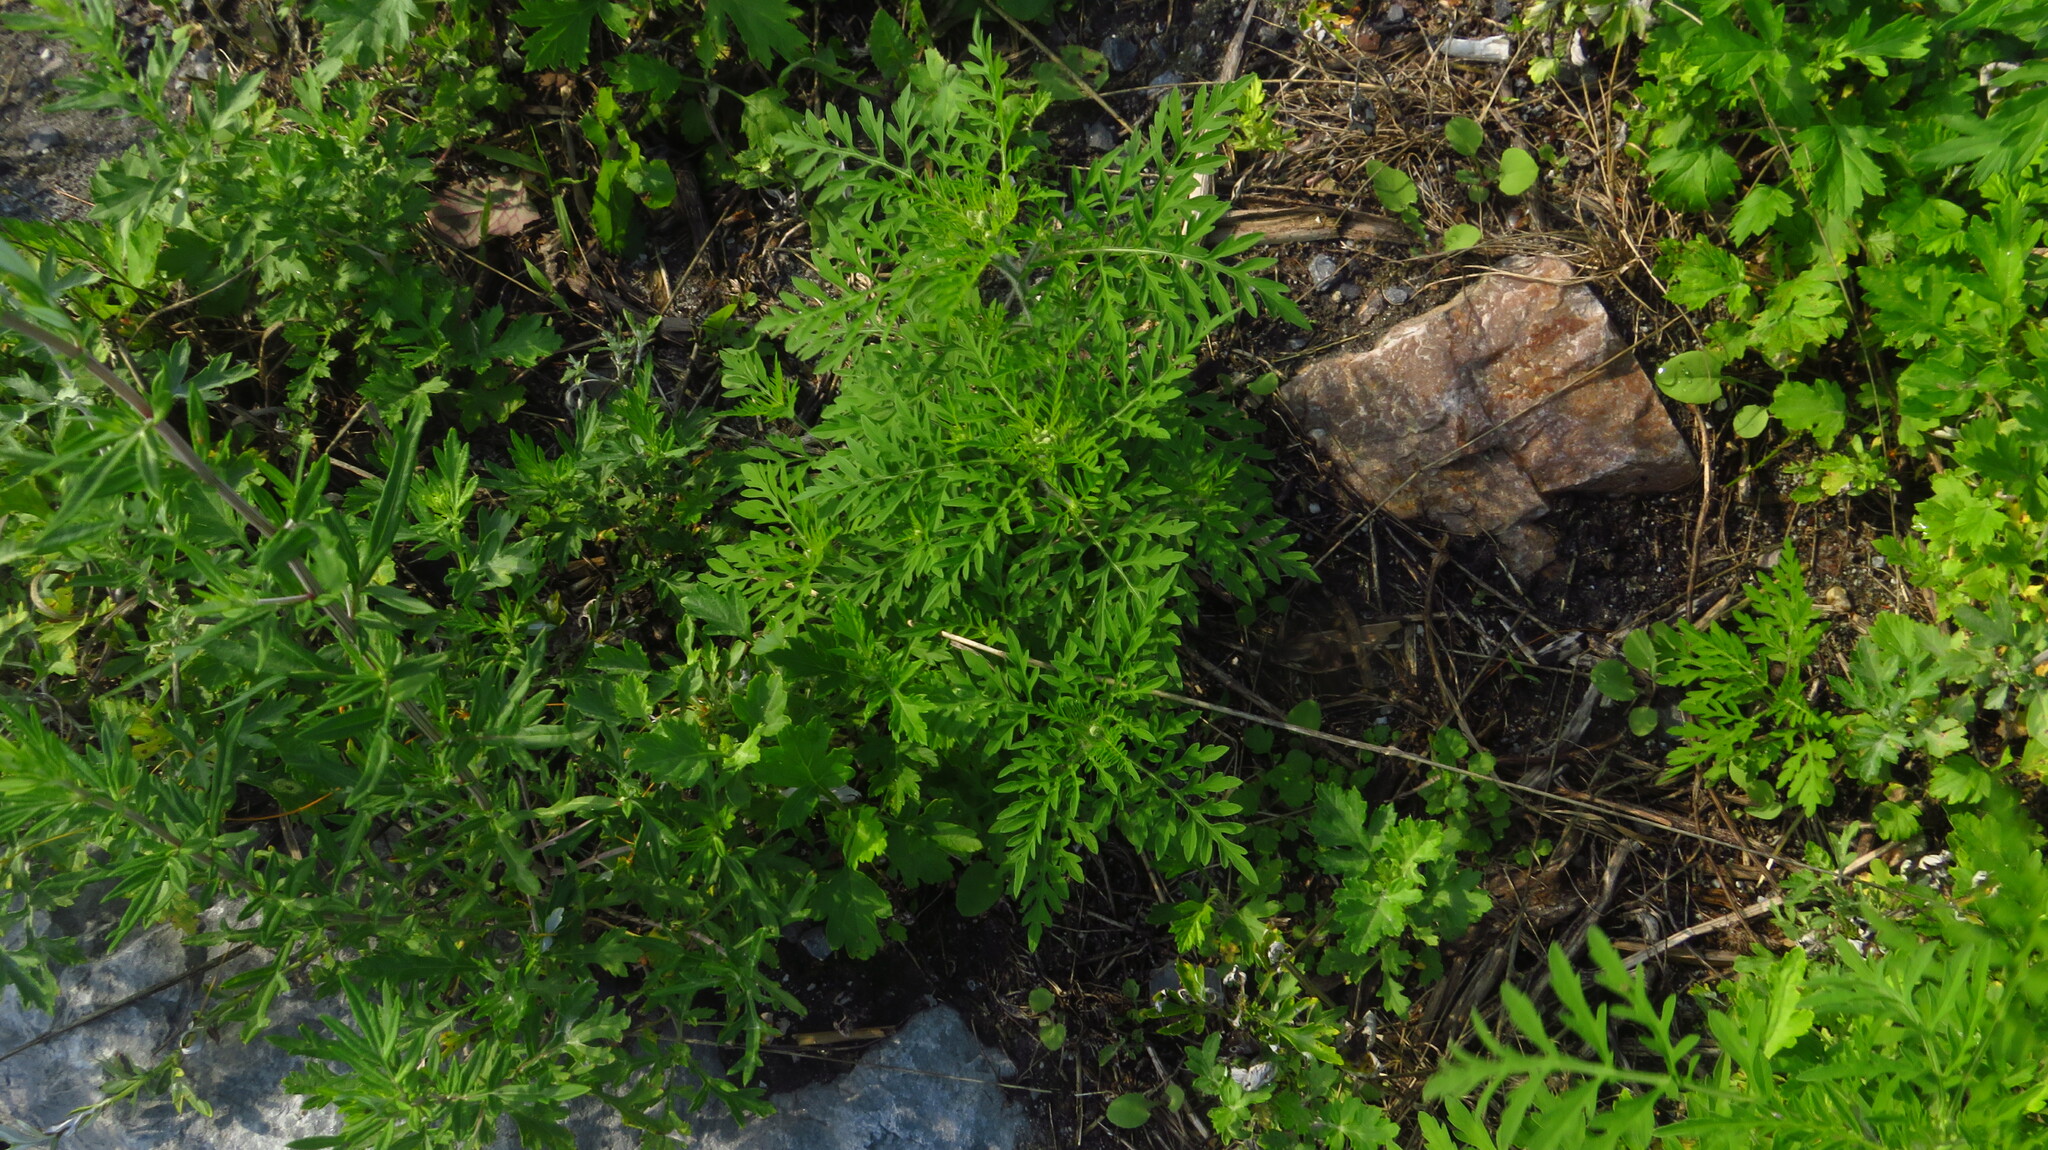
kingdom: Plantae
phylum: Tracheophyta
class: Magnoliopsida
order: Asterales
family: Asteraceae
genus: Ambrosia
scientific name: Ambrosia artemisiifolia
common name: Annual ragweed
